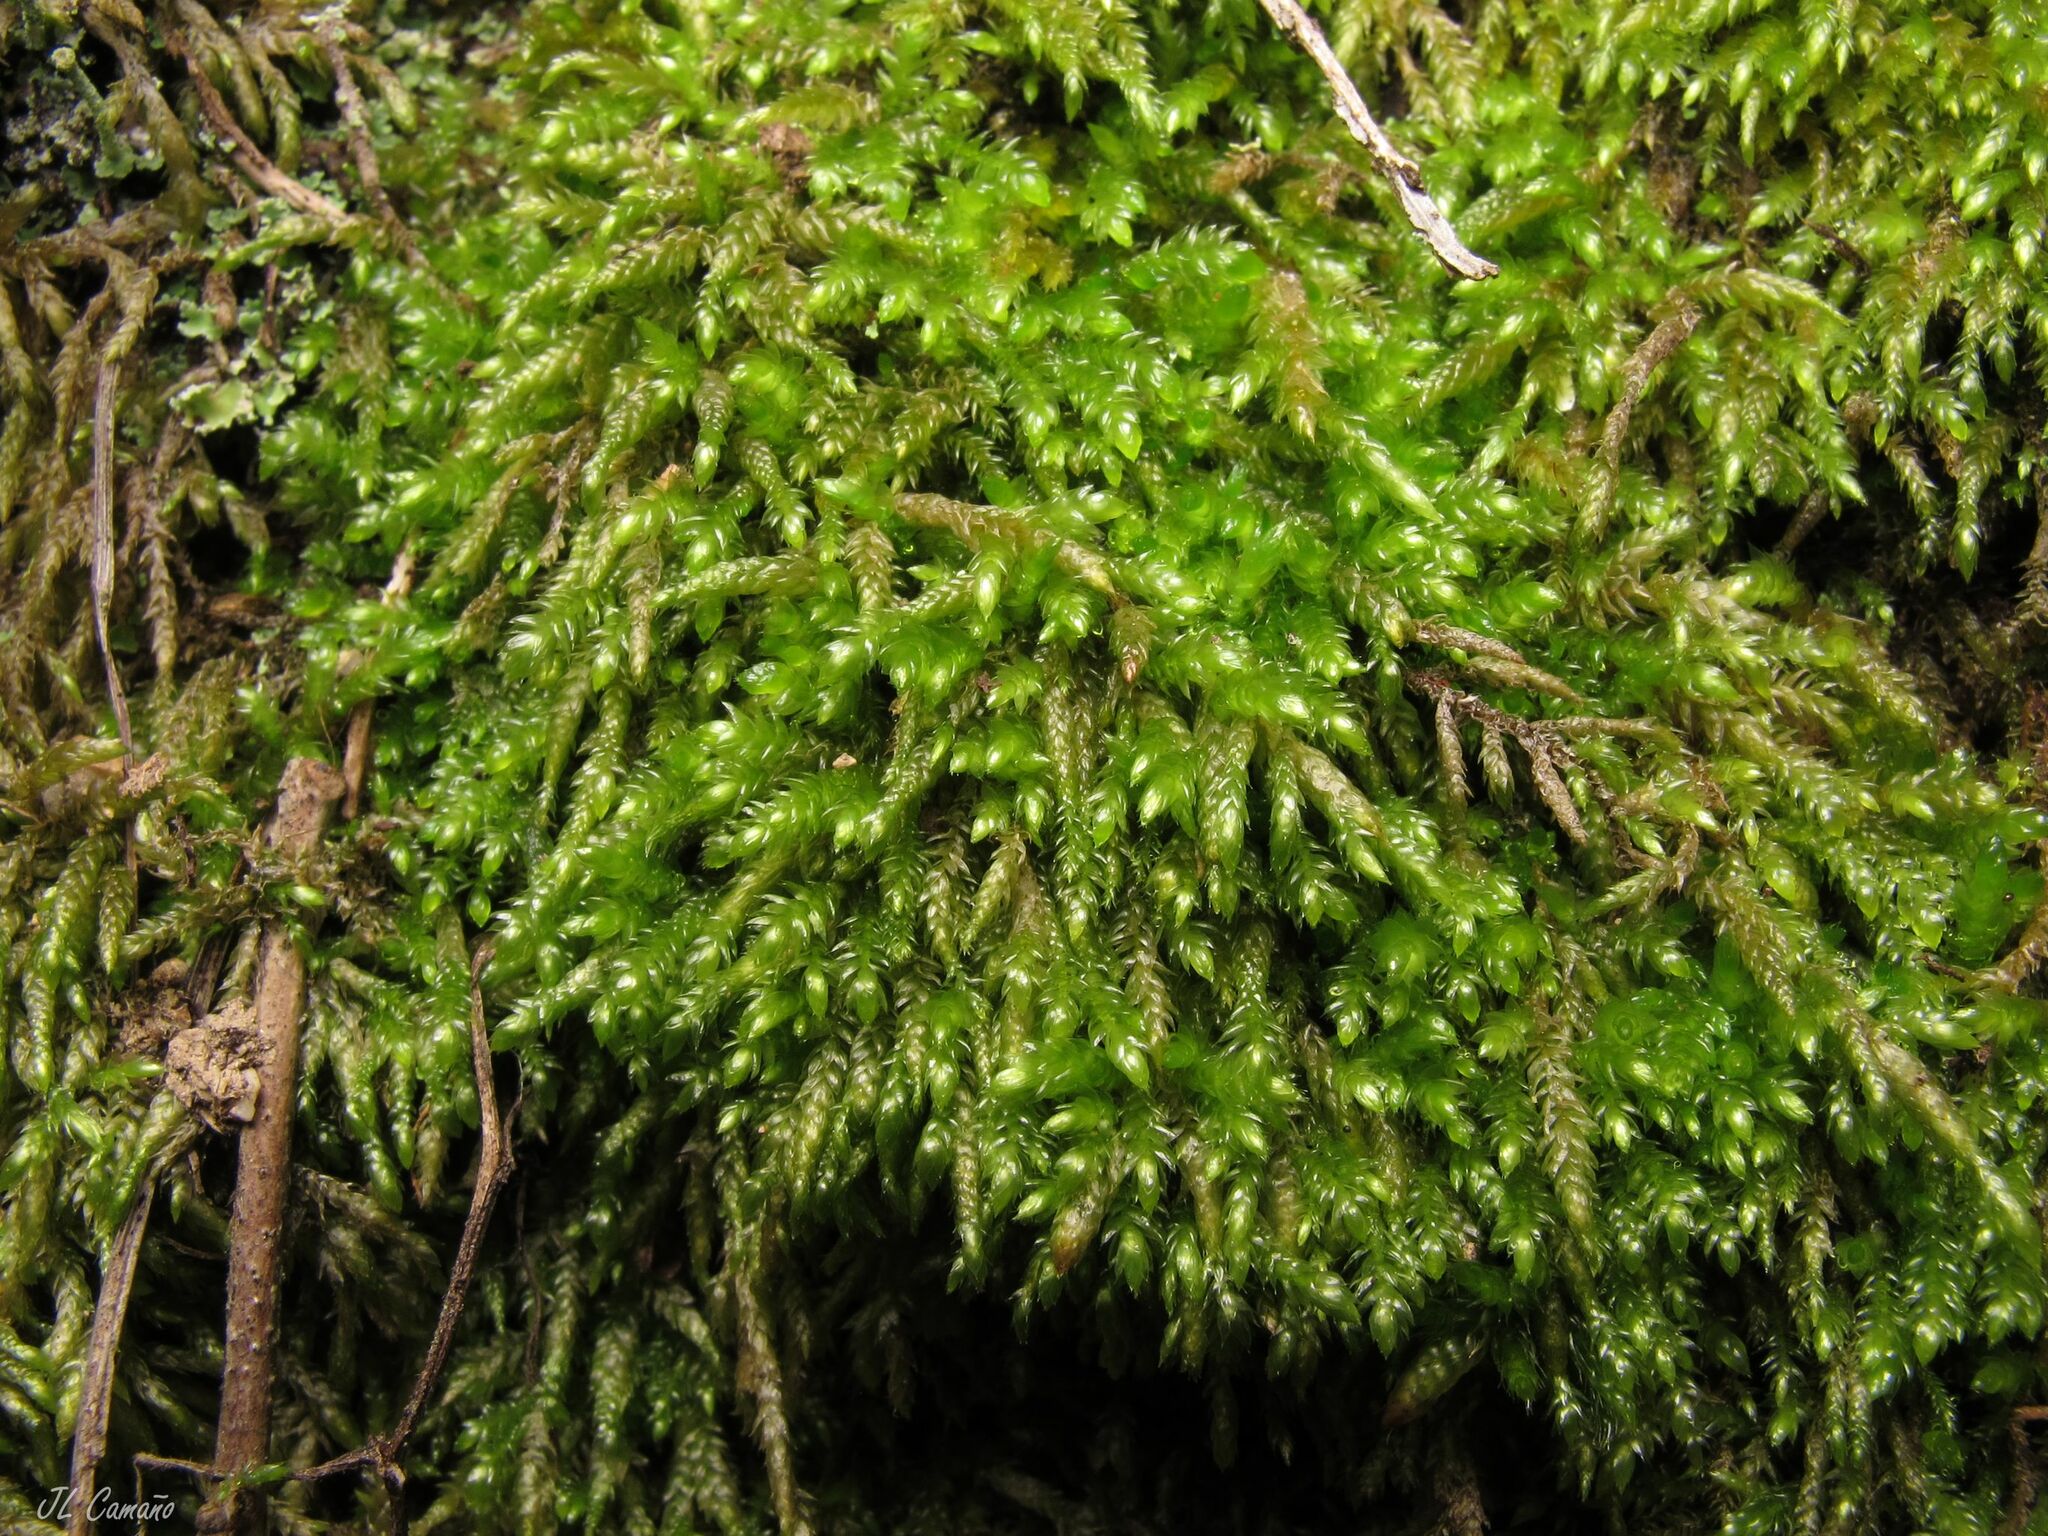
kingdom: Plantae
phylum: Bryophyta
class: Bryopsida
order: Hypnales
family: Brachytheciaceae
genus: Scleropodium
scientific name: Scleropodium touretii
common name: Glass-wort feather-moss
